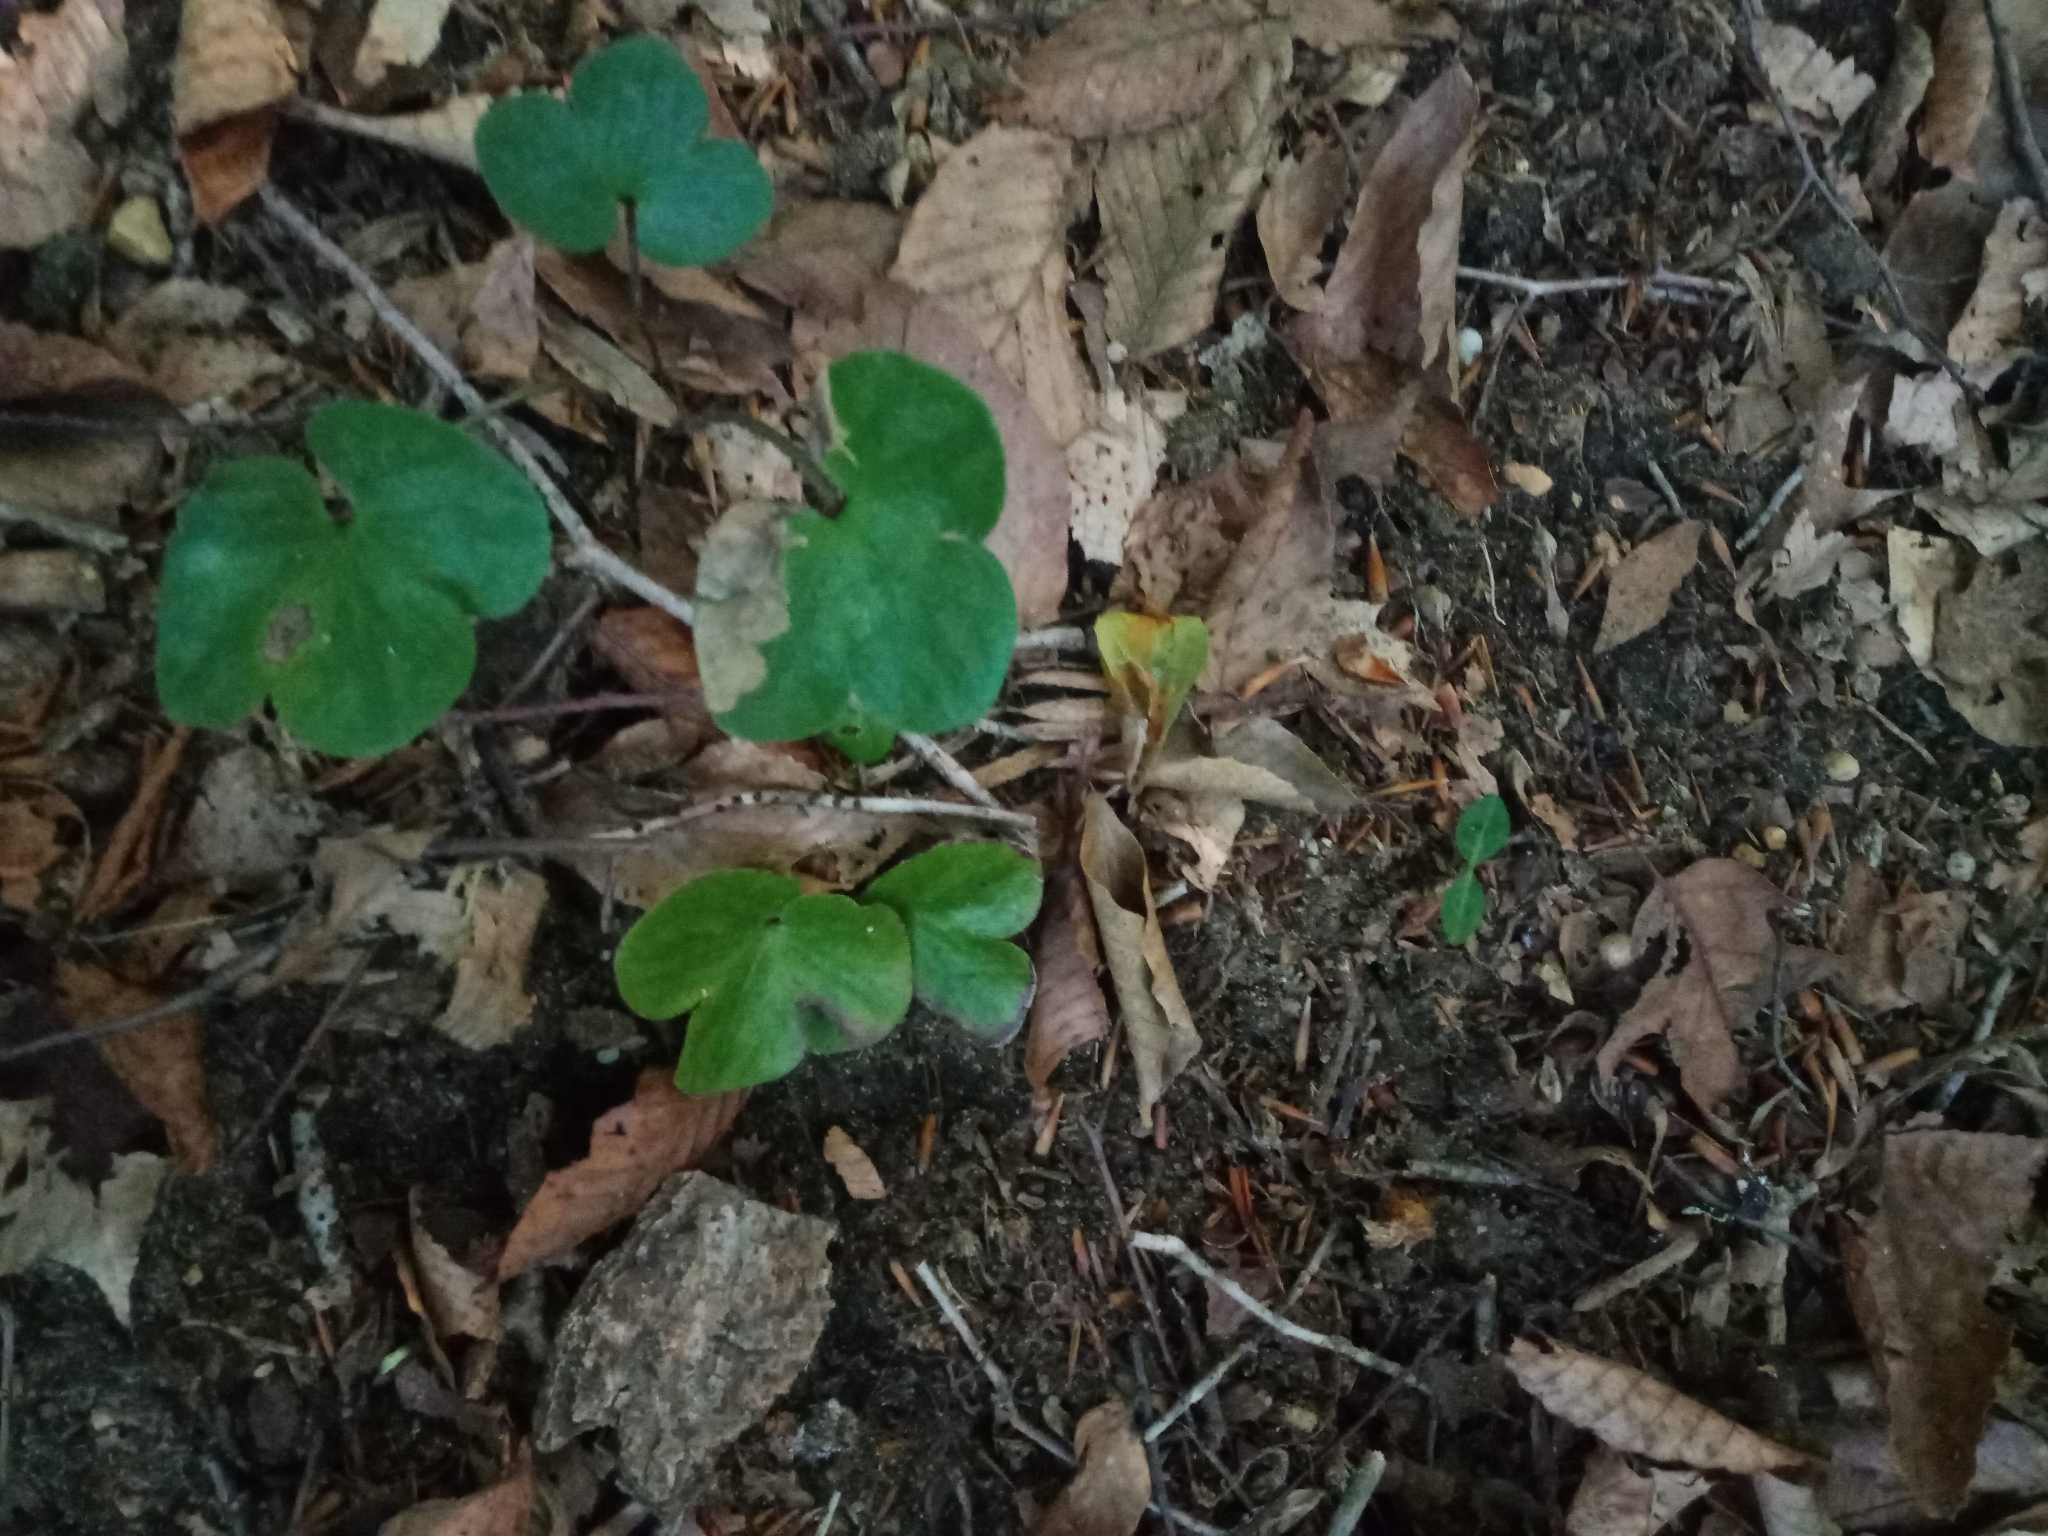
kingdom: Plantae
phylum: Tracheophyta
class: Magnoliopsida
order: Ranunculales
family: Ranunculaceae
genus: Hepatica
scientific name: Hepatica americana
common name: American hepatica
